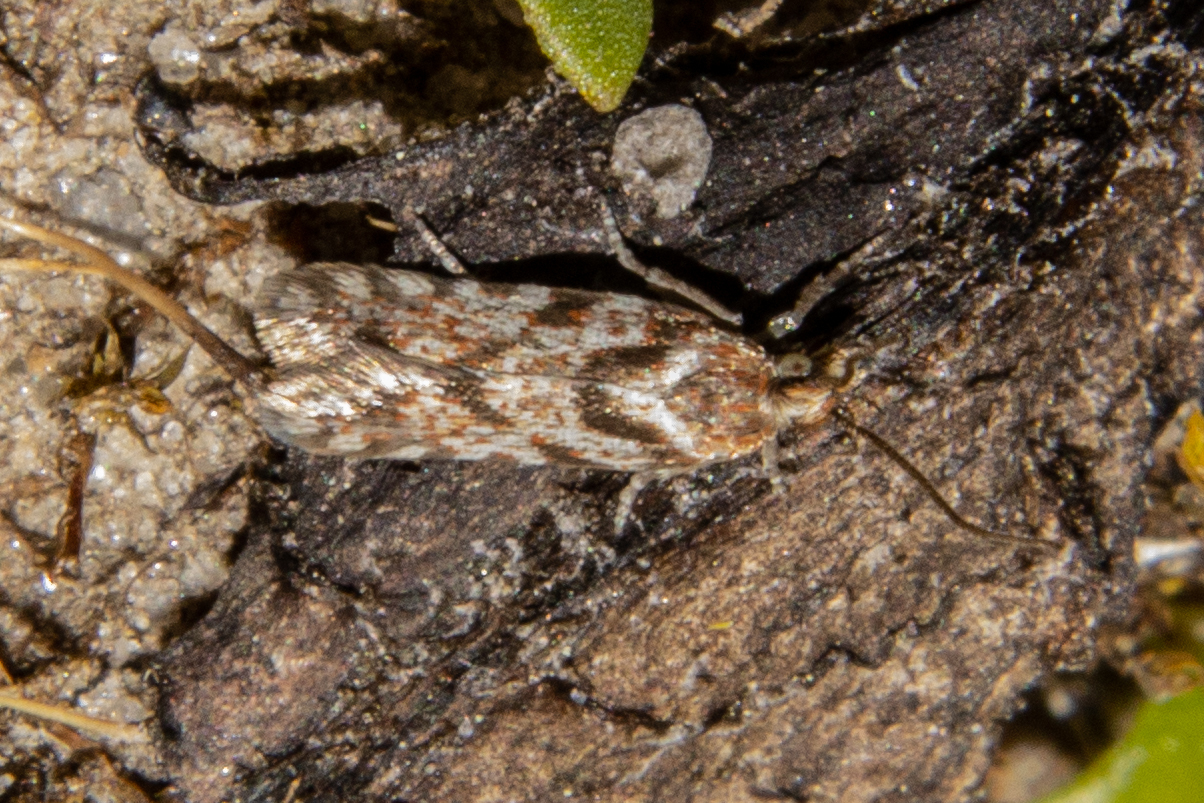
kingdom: Animalia
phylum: Arthropoda
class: Insecta
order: Lepidoptera
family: Tortricidae
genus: Eurythecta
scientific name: Eurythecta zelaea
